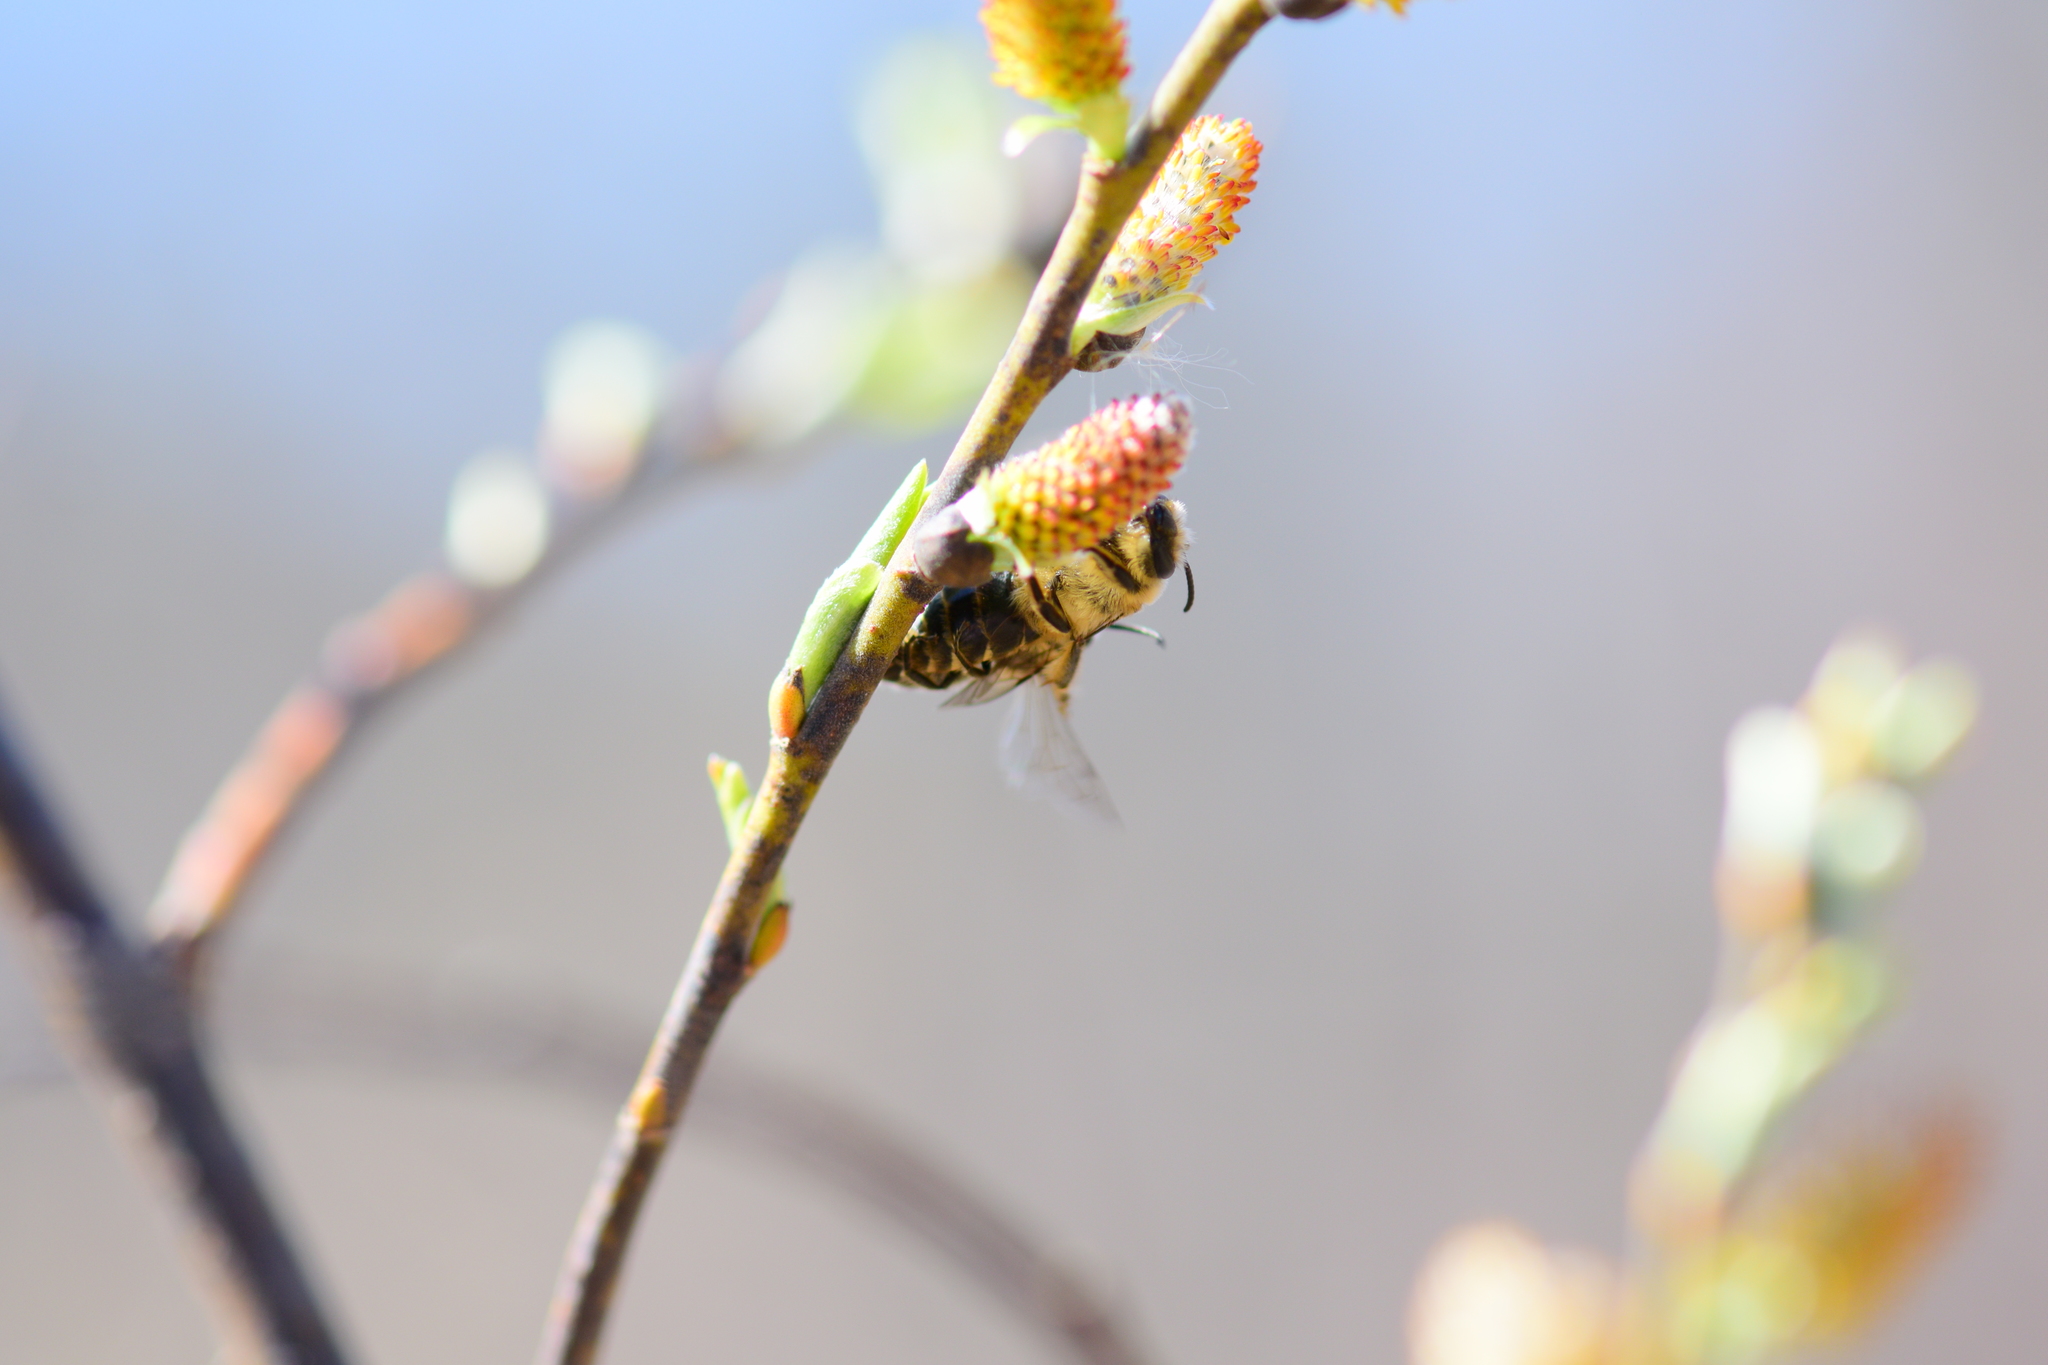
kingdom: Animalia
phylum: Arthropoda
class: Insecta
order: Hymenoptera
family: Colletidae
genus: Colletes
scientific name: Colletes inaequalis
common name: Unequal cellophane bee
